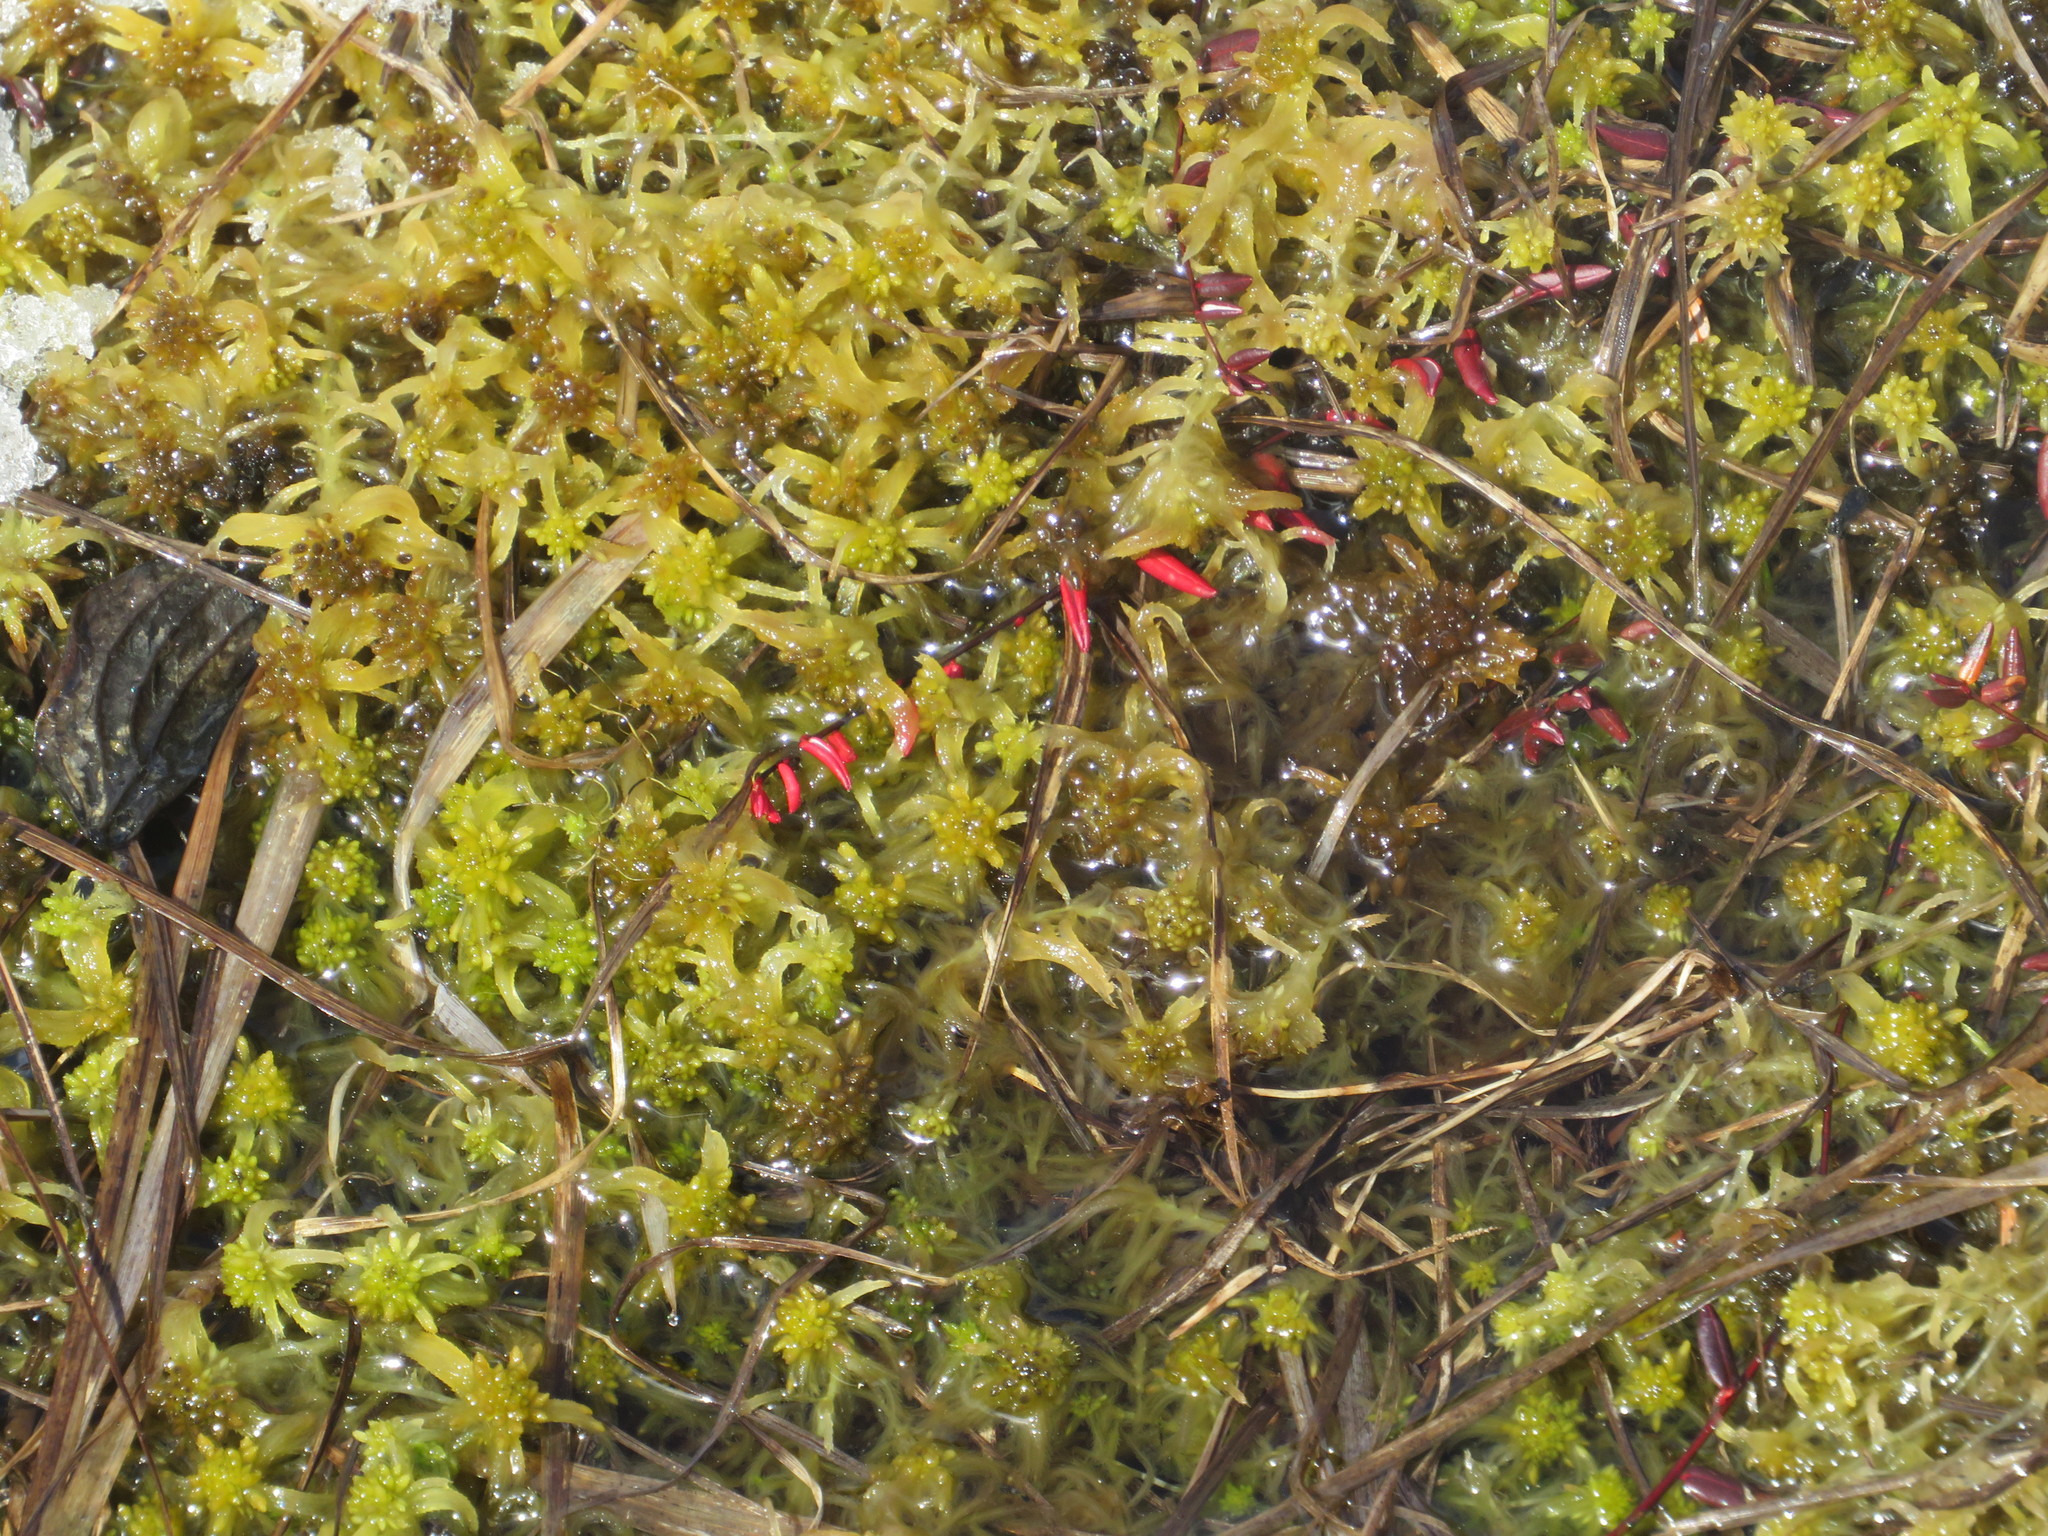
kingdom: Plantae
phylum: Tracheophyta
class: Magnoliopsida
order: Ericales
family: Ericaceae
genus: Vaccinium
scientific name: Vaccinium oxycoccos
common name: Cranberry
